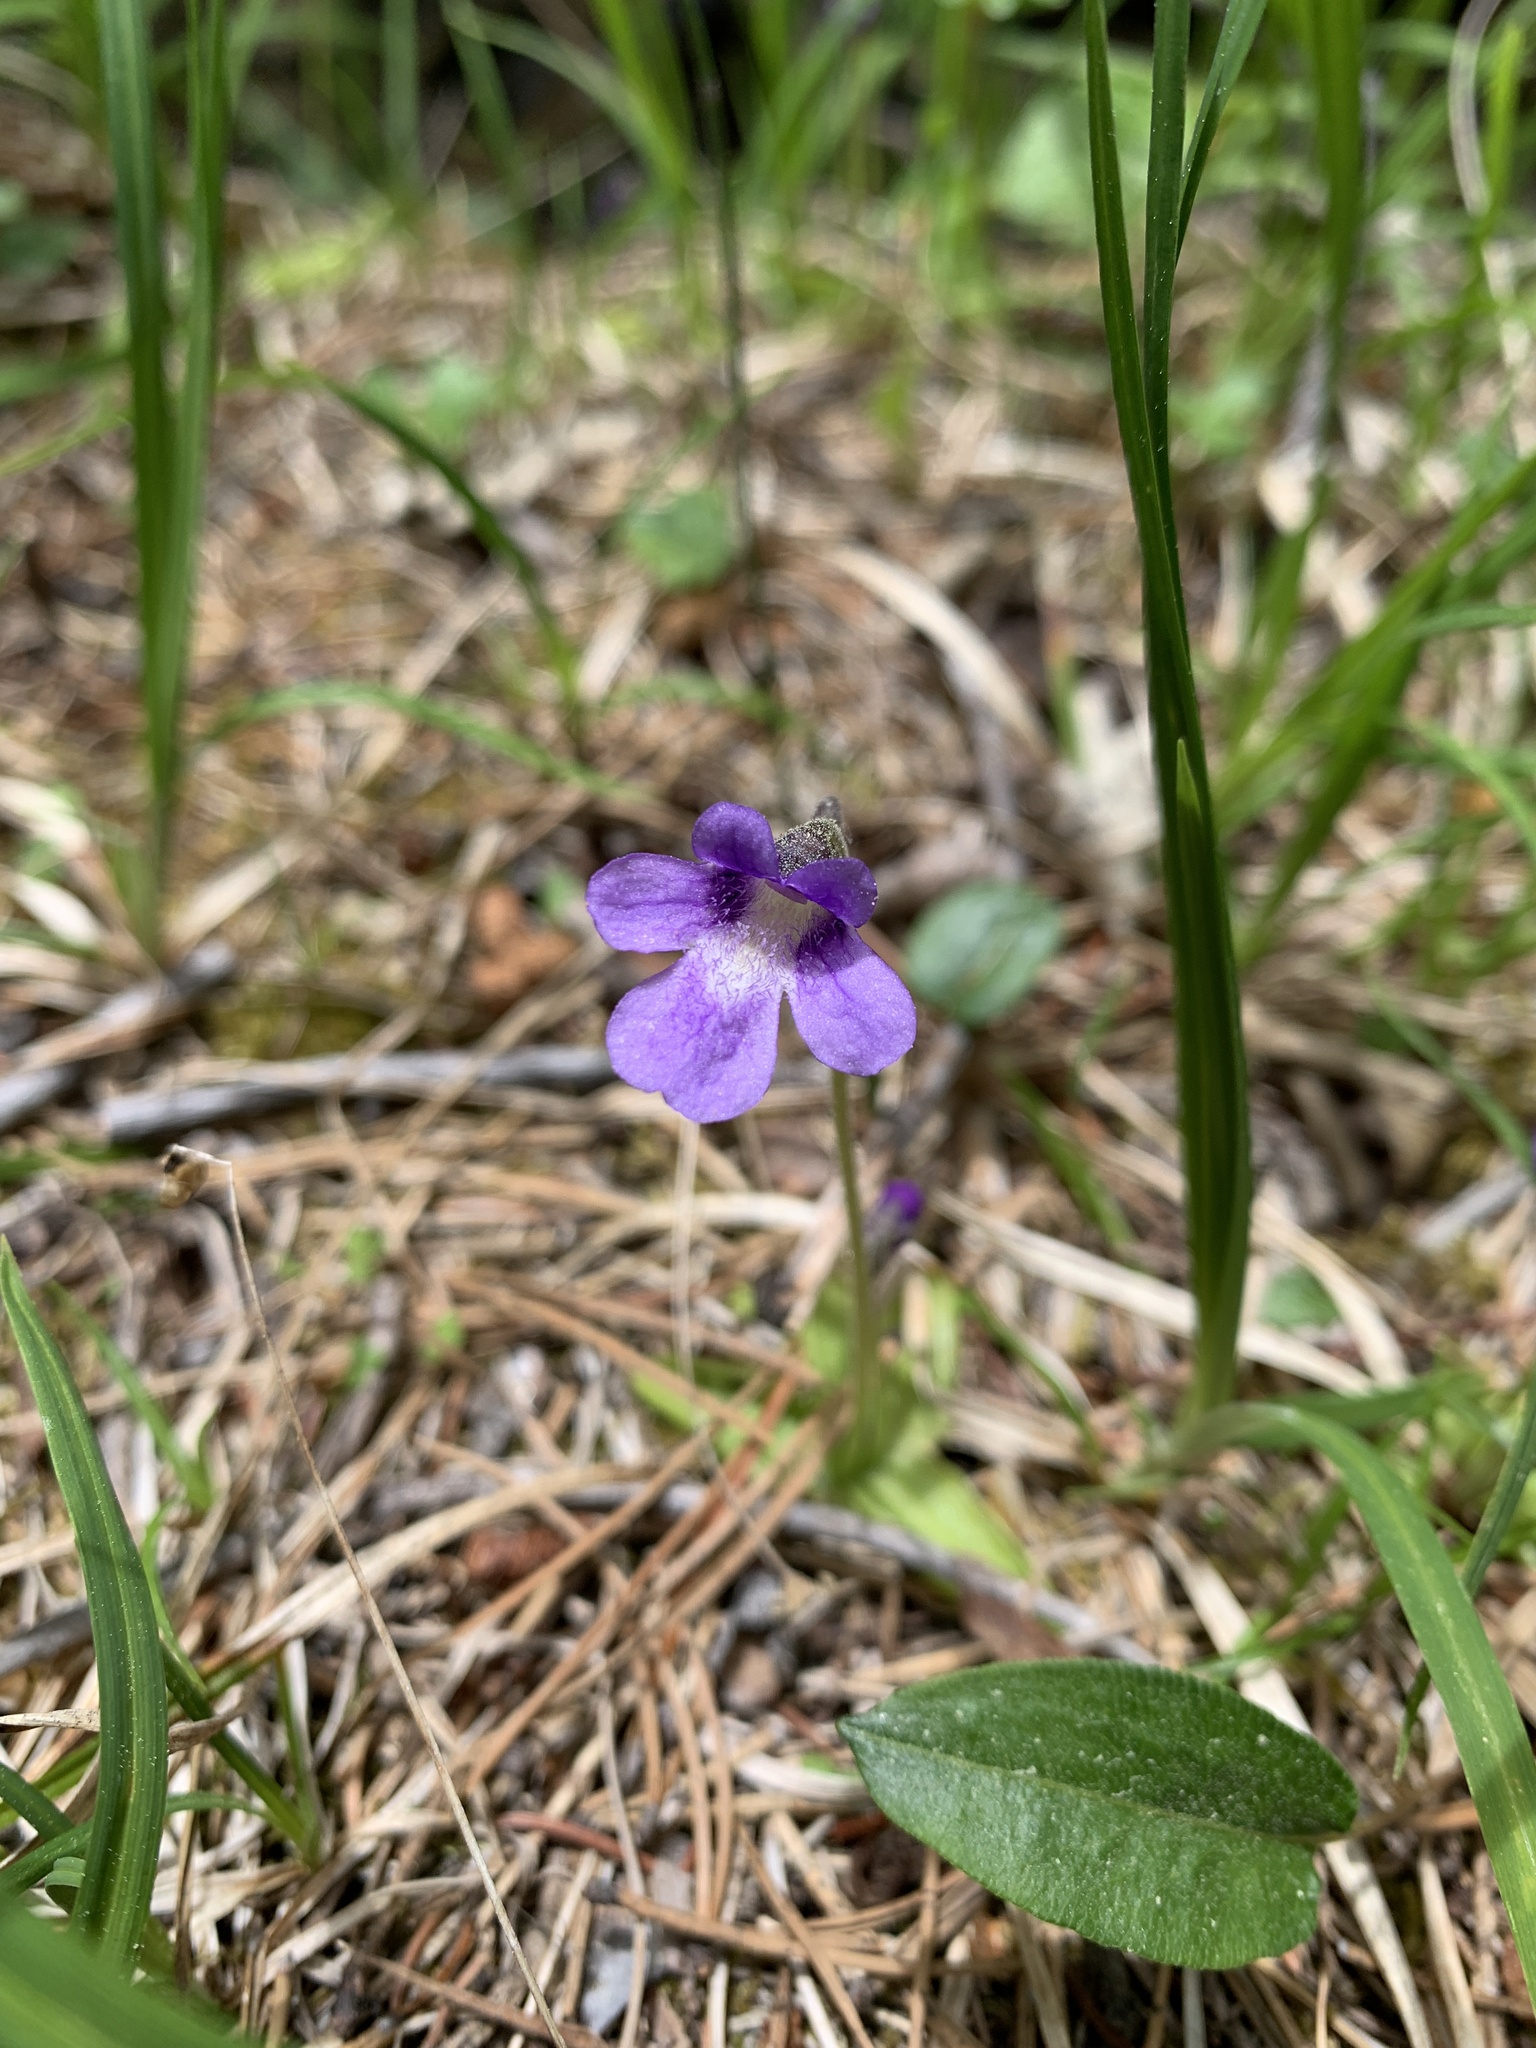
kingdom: Plantae
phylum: Tracheophyta
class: Magnoliopsida
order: Lamiales
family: Lentibulariaceae
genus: Pinguicula
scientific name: Pinguicula vulgaris
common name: Common butterwort
